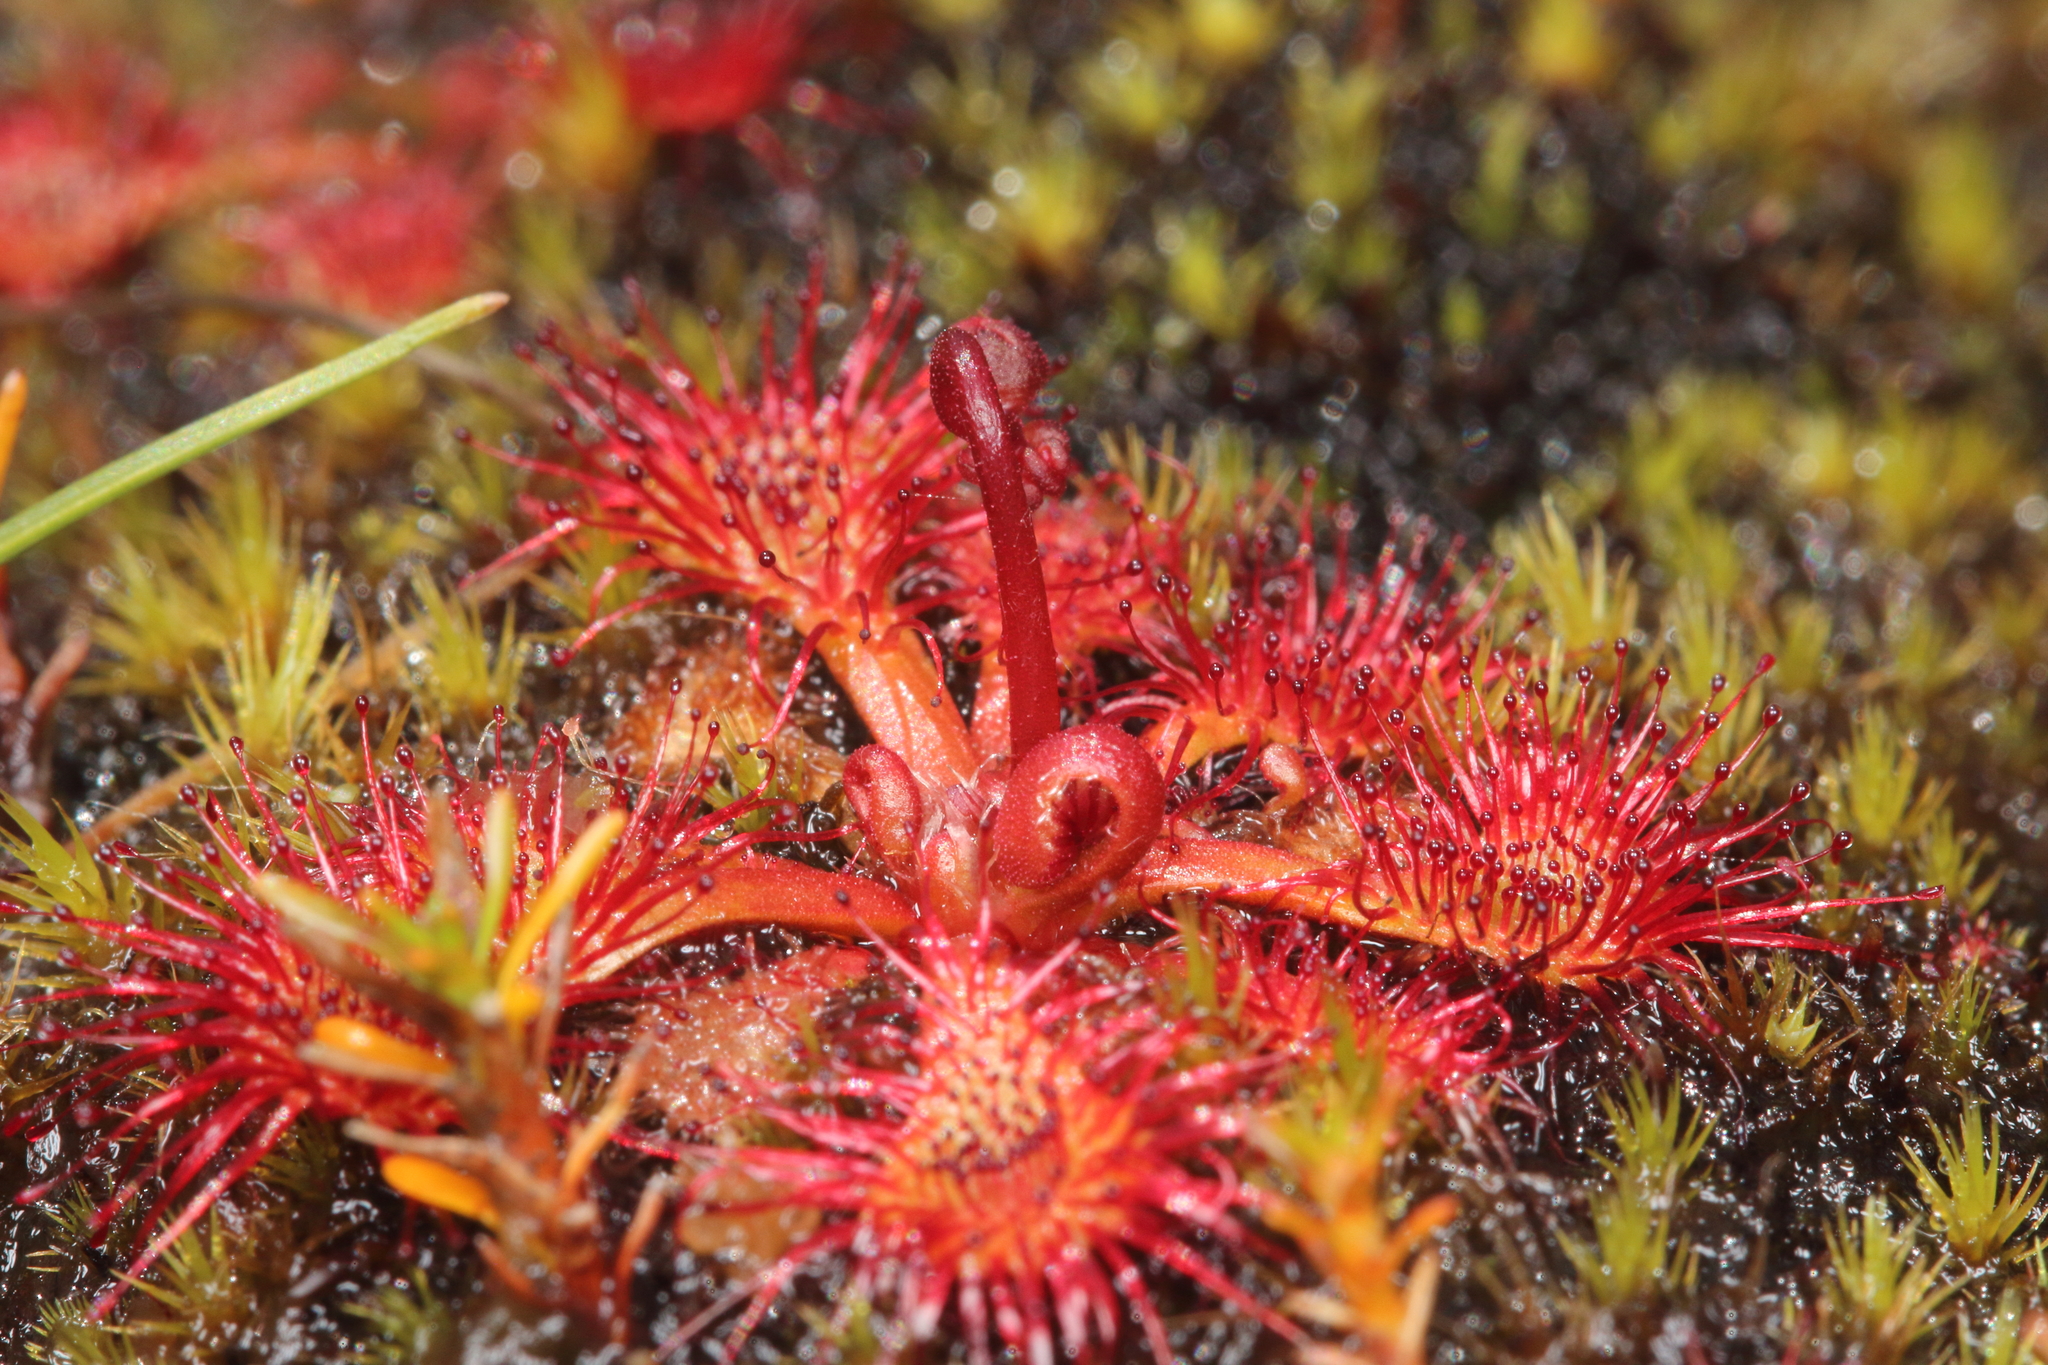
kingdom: Plantae
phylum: Tracheophyta
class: Magnoliopsida
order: Caryophyllales
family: Droseraceae
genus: Drosera
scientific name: Drosera spatulata
